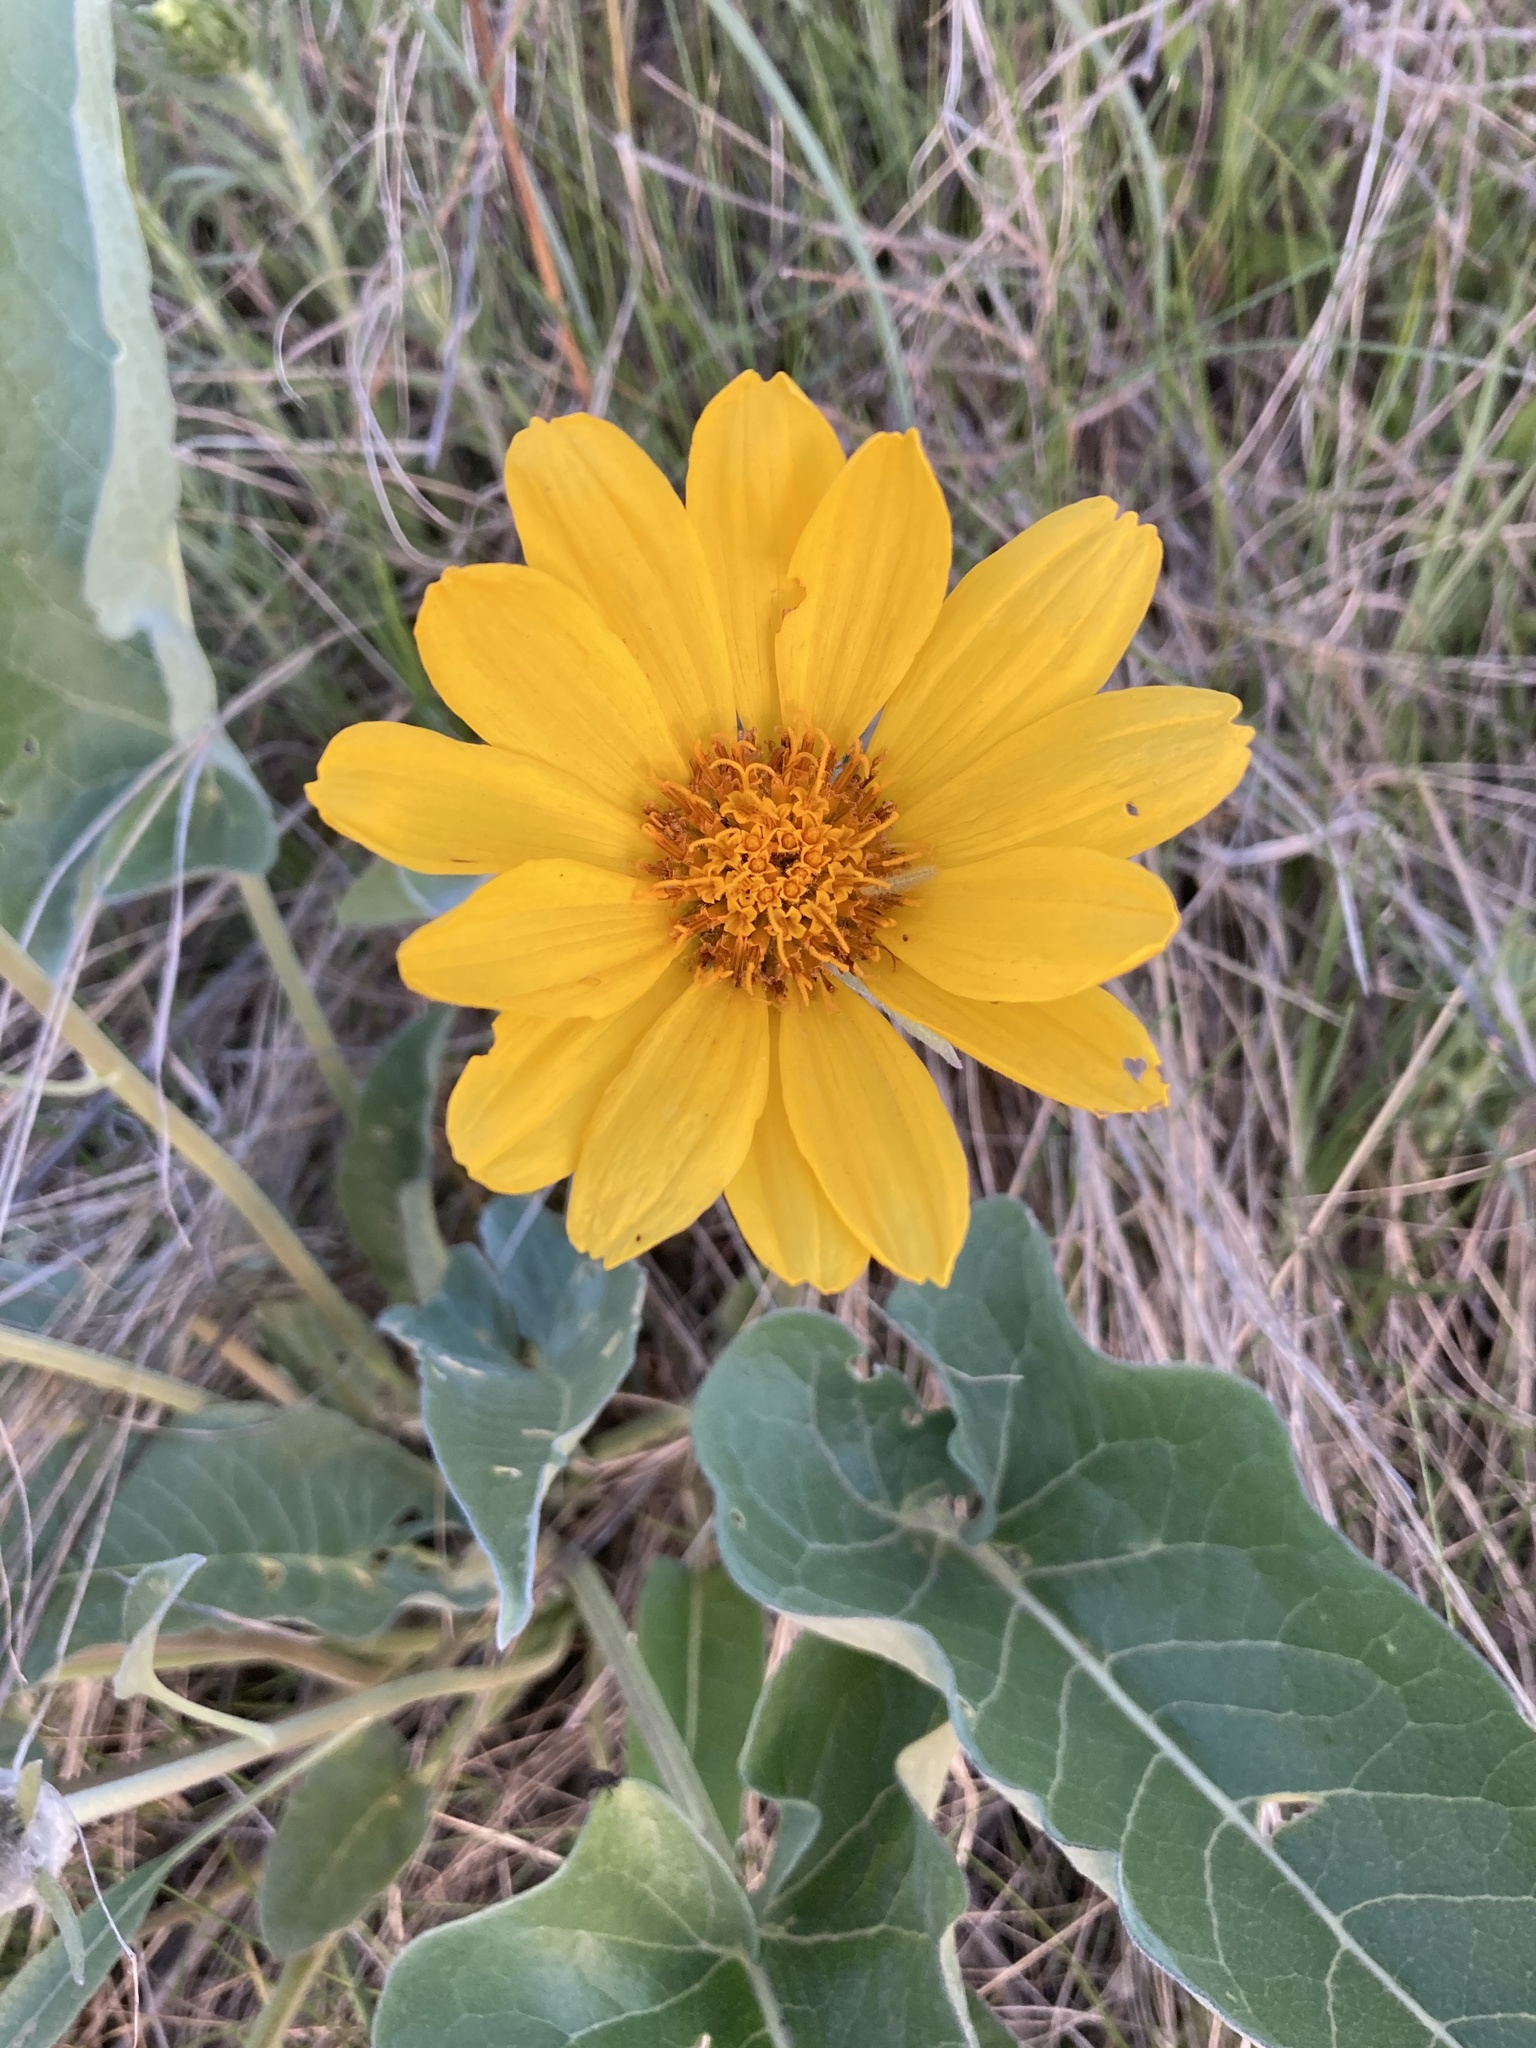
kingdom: Plantae
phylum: Tracheophyta
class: Magnoliopsida
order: Asterales
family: Asteraceae
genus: Wyethia
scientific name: Wyethia sagittata
